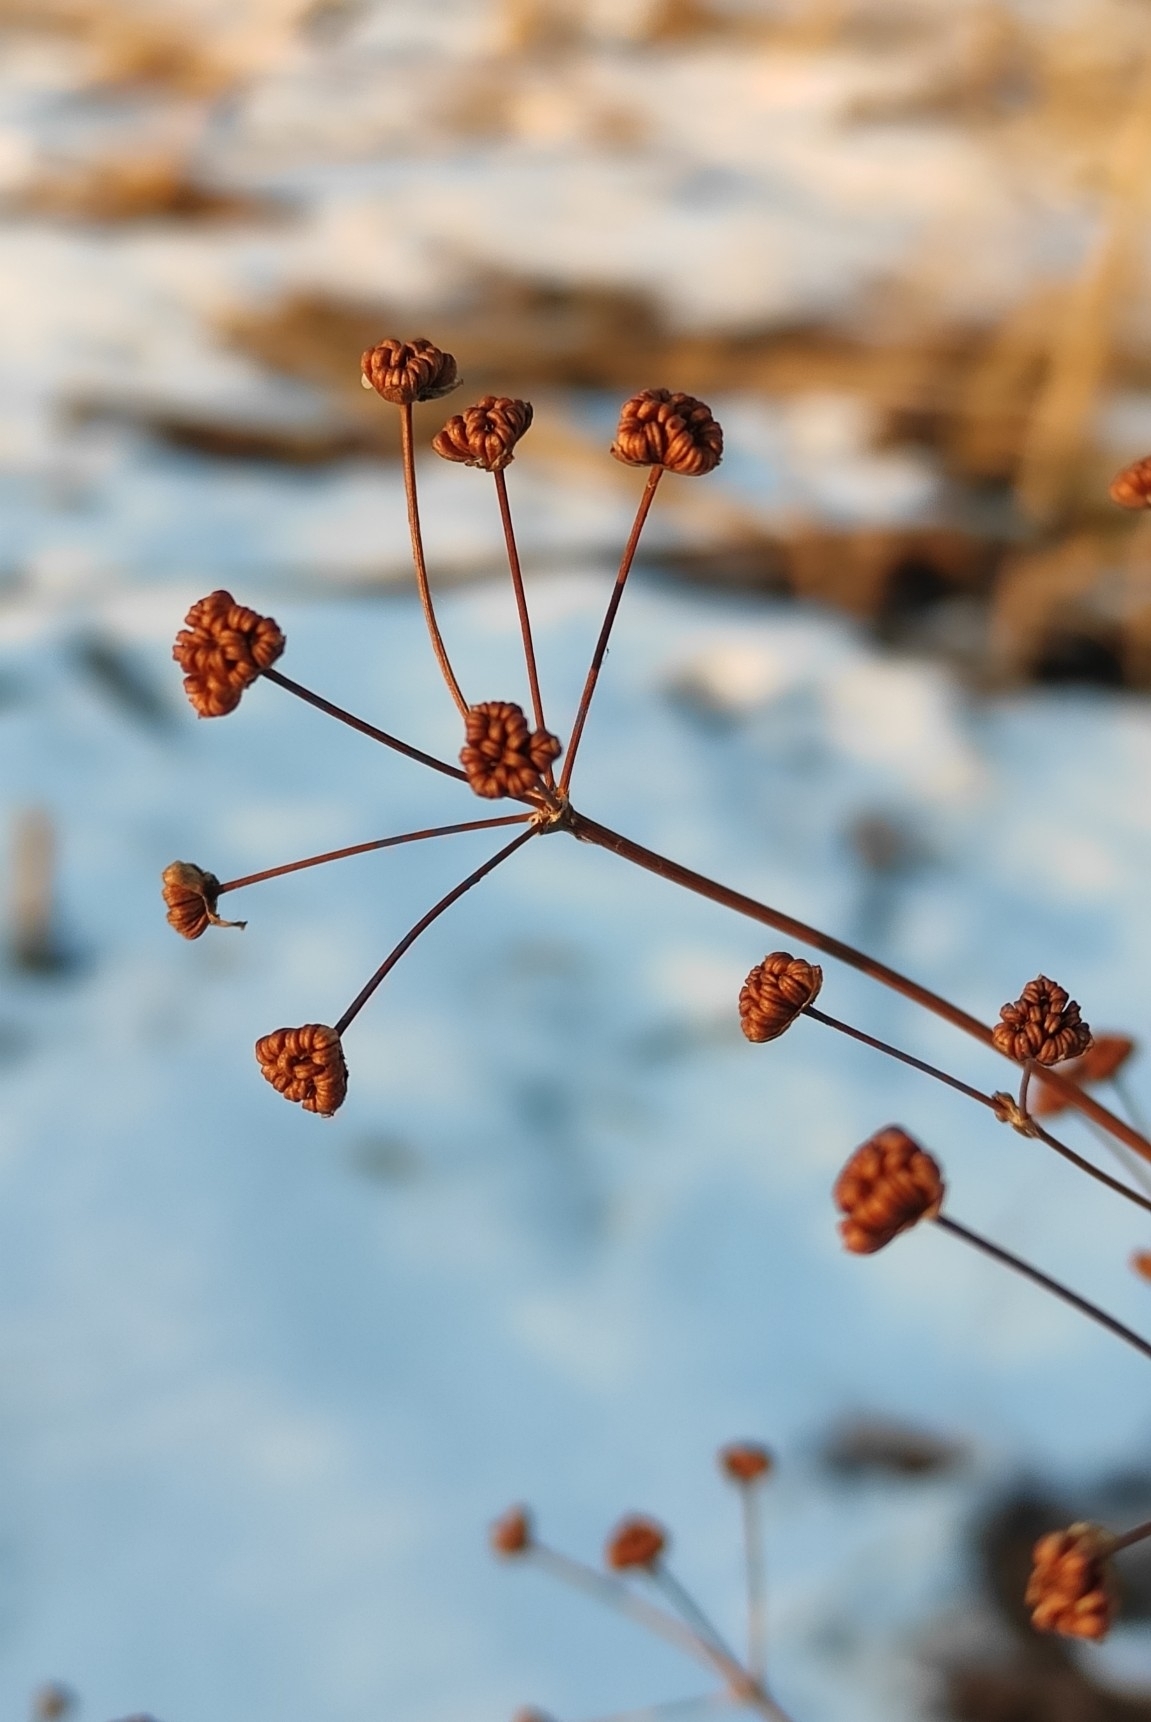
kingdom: Plantae
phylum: Tracheophyta
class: Liliopsida
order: Alismatales
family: Alismataceae
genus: Alisma
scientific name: Alisma plantago-aquatica
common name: Water-plantain
